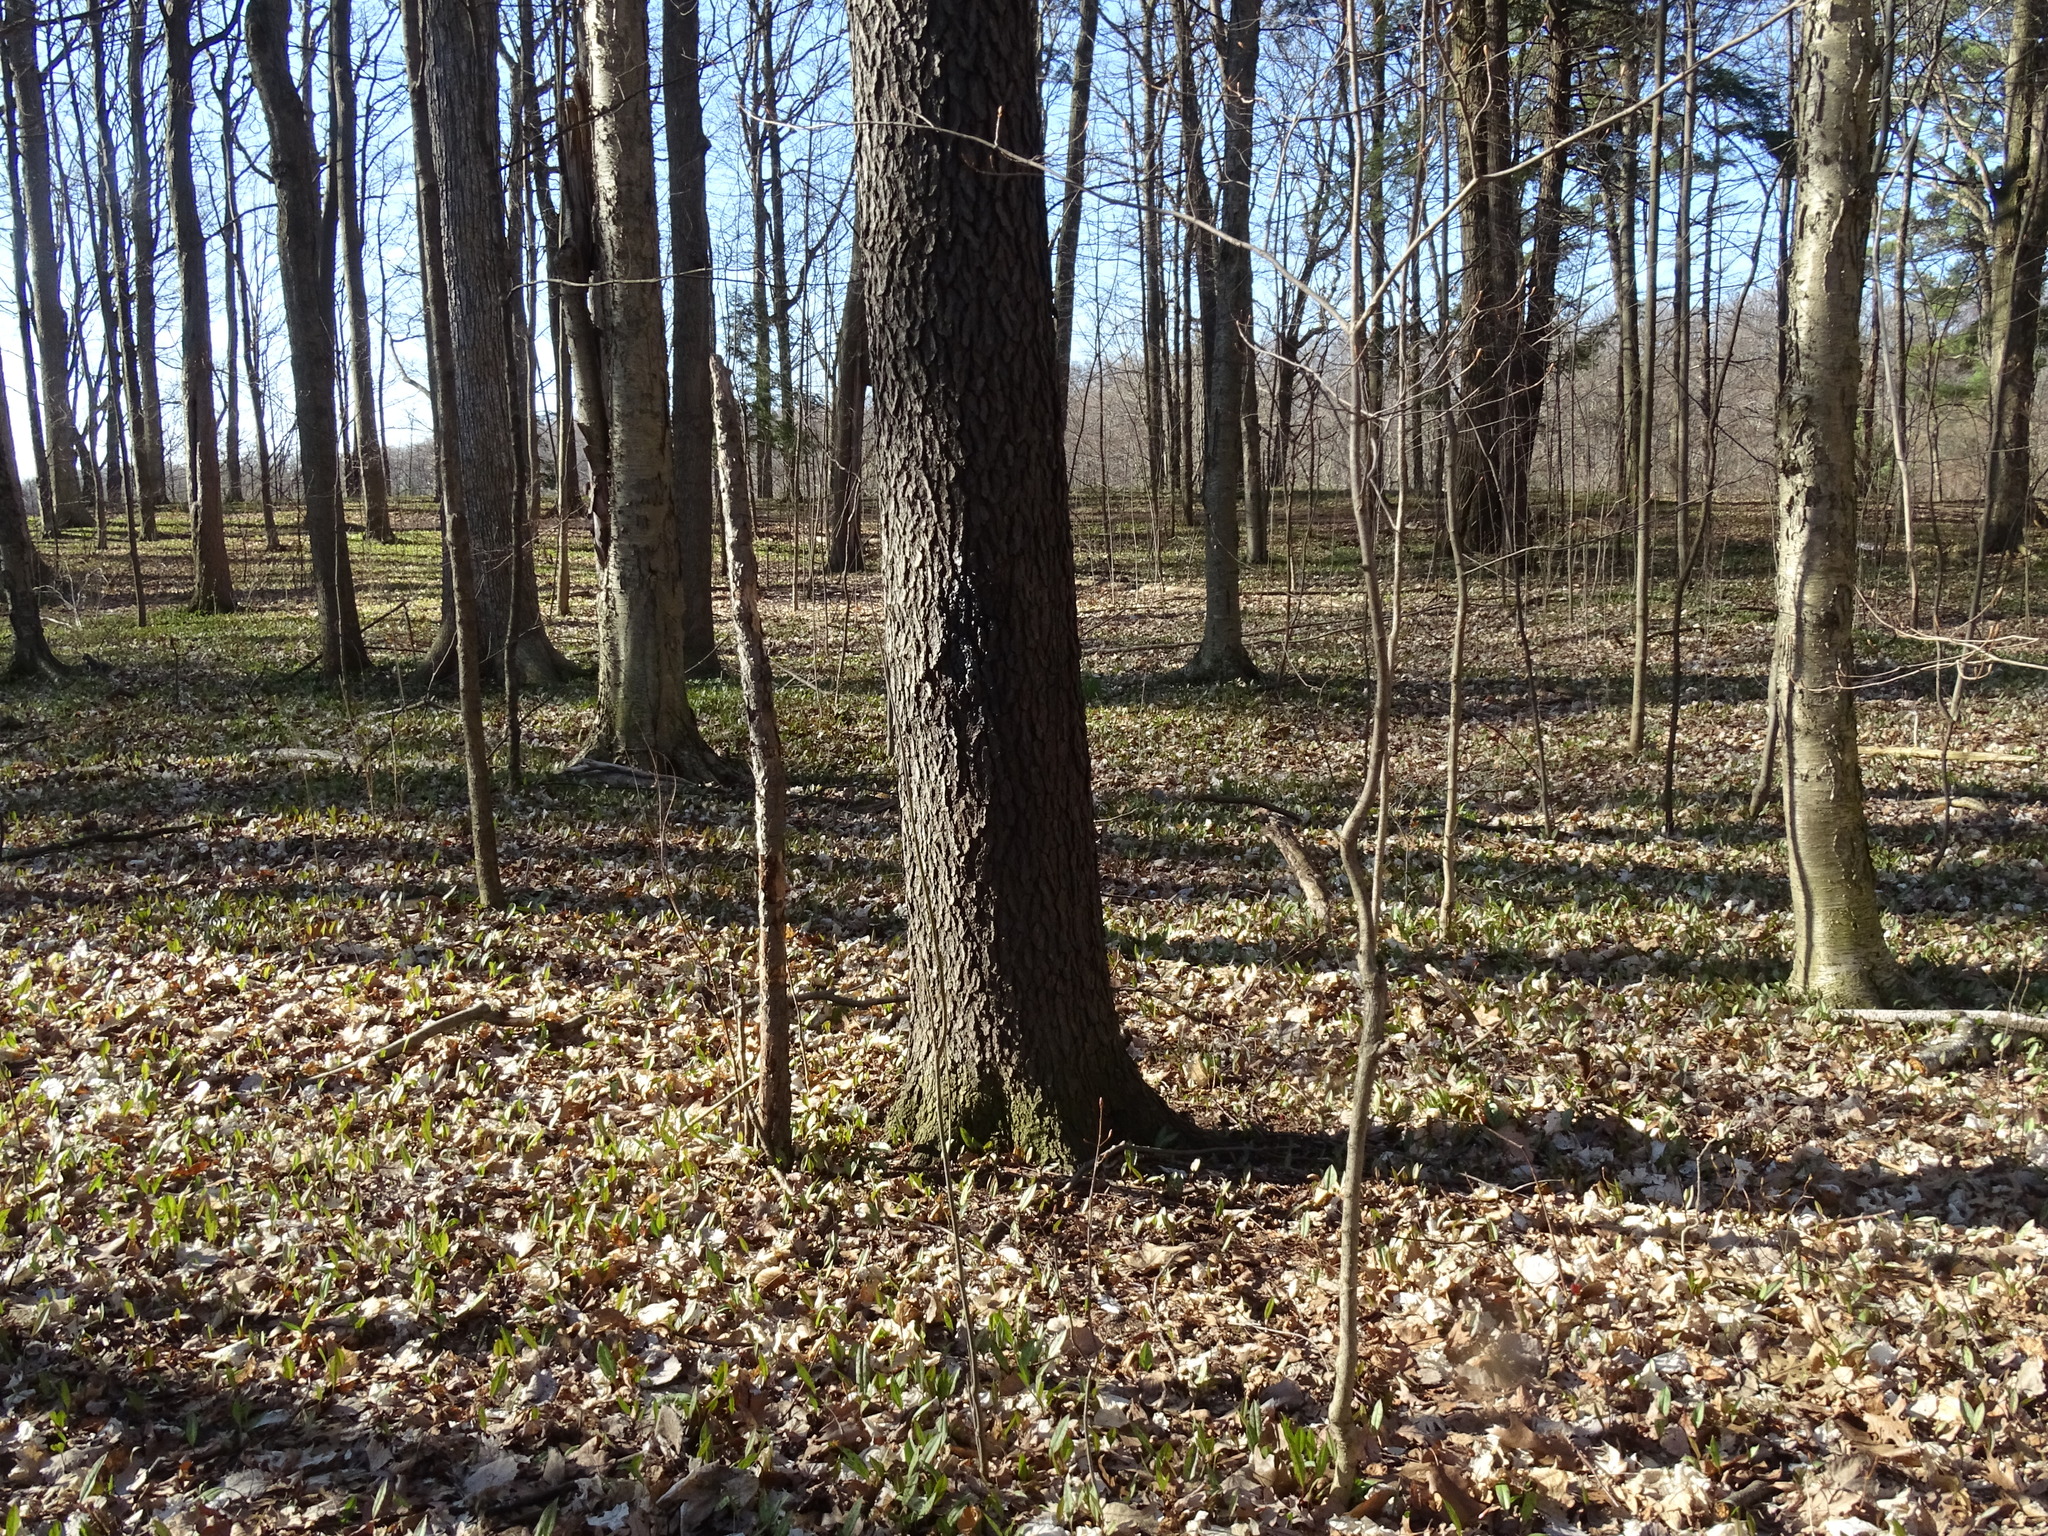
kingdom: Plantae
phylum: Tracheophyta
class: Magnoliopsida
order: Rosales
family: Rosaceae
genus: Prunus
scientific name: Prunus serotina
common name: Black cherry
